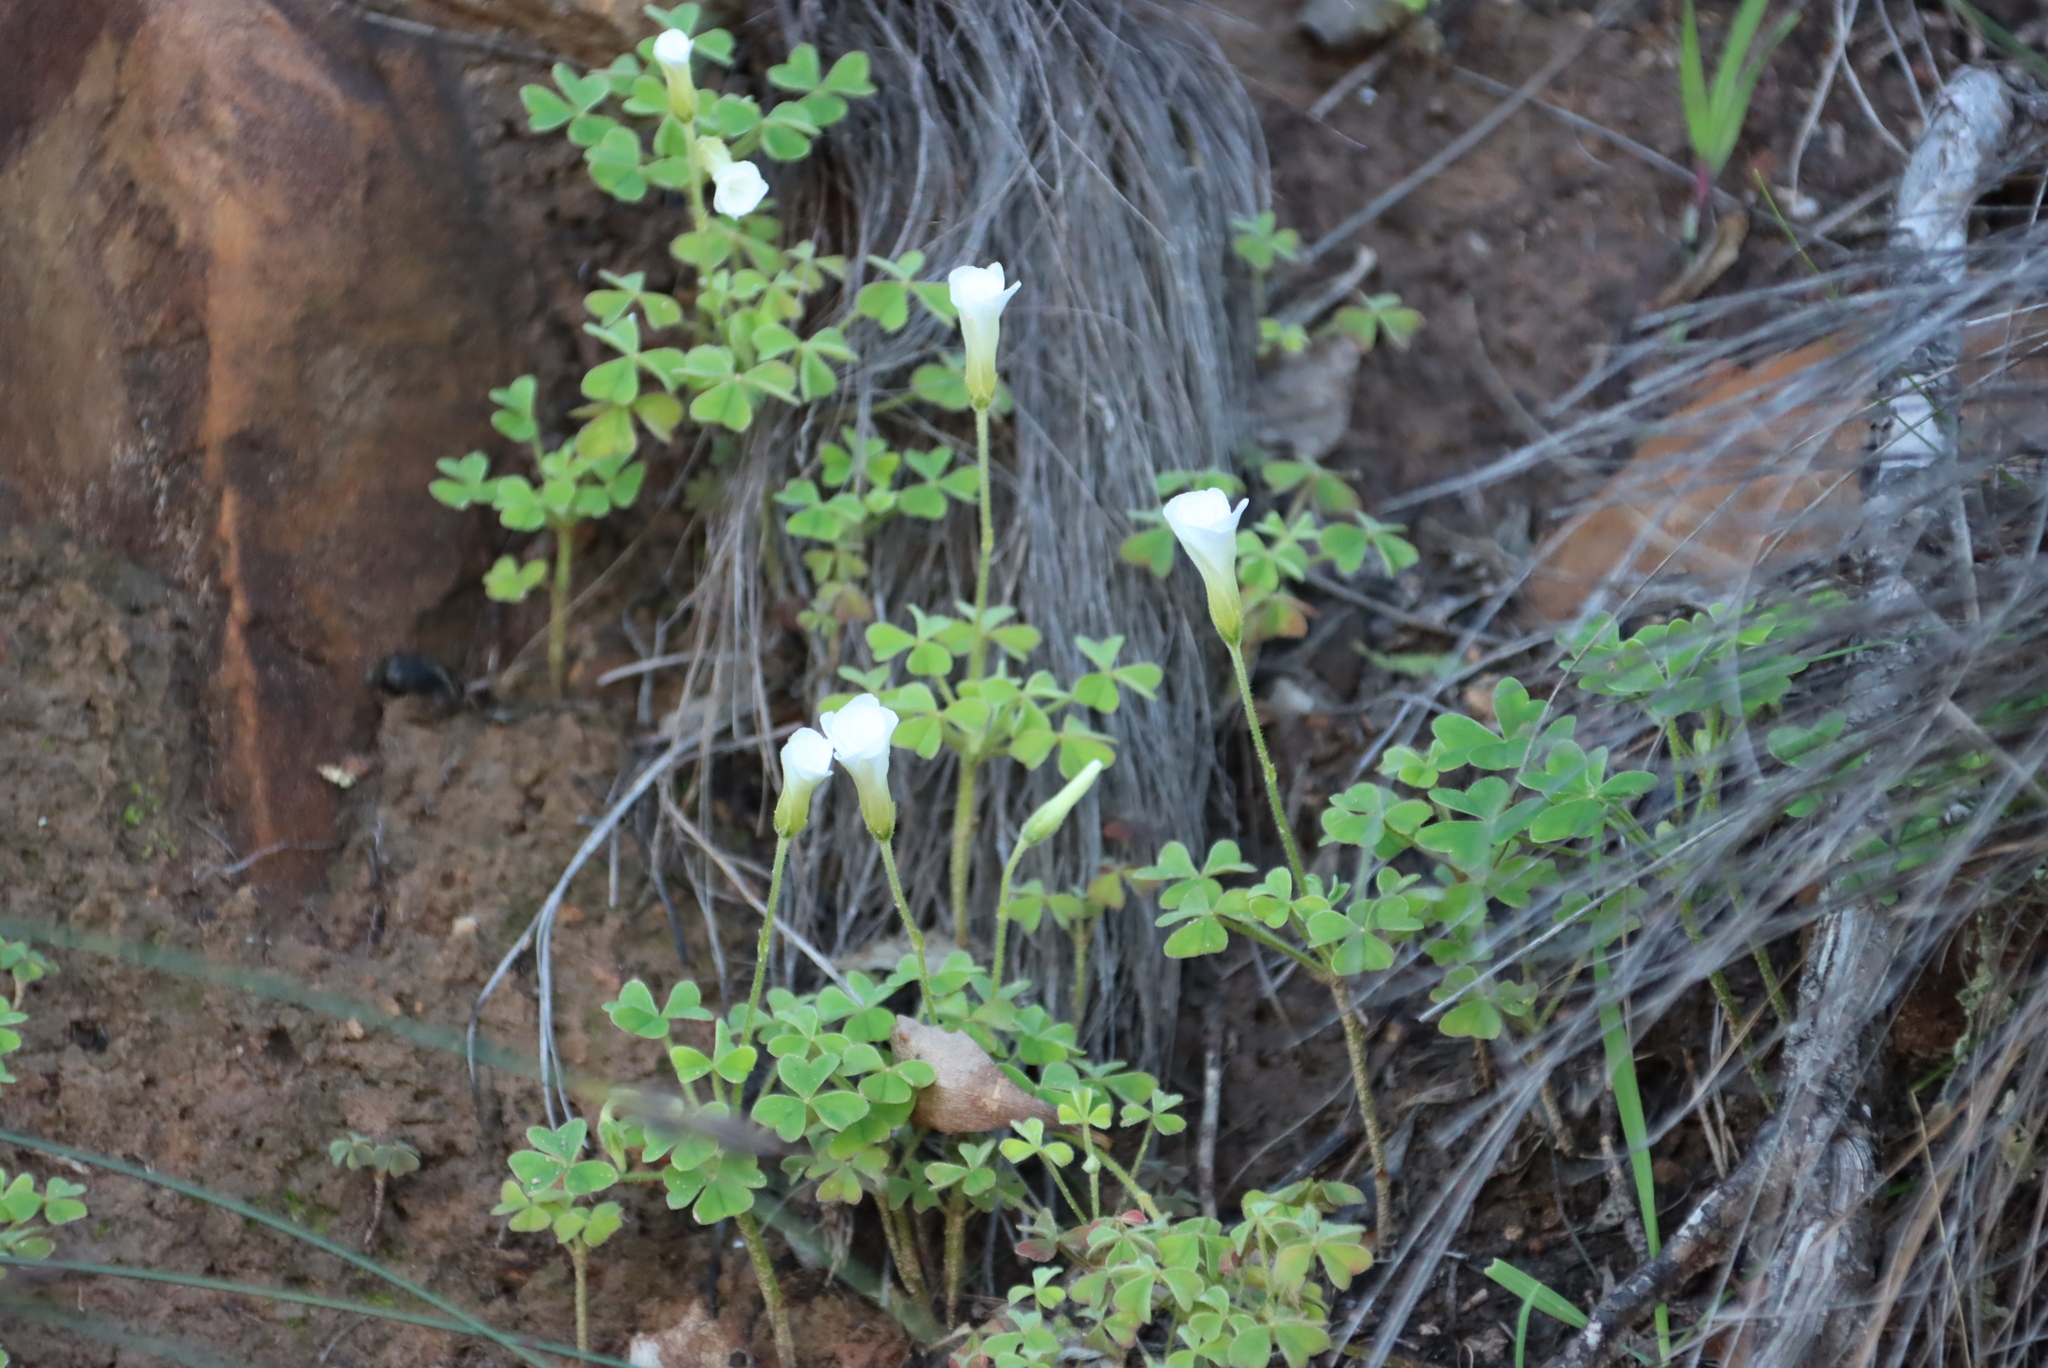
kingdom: Plantae
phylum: Tracheophyta
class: Magnoliopsida
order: Oxalidales
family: Oxalidaceae
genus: Oxalis
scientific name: Oxalis lanata
